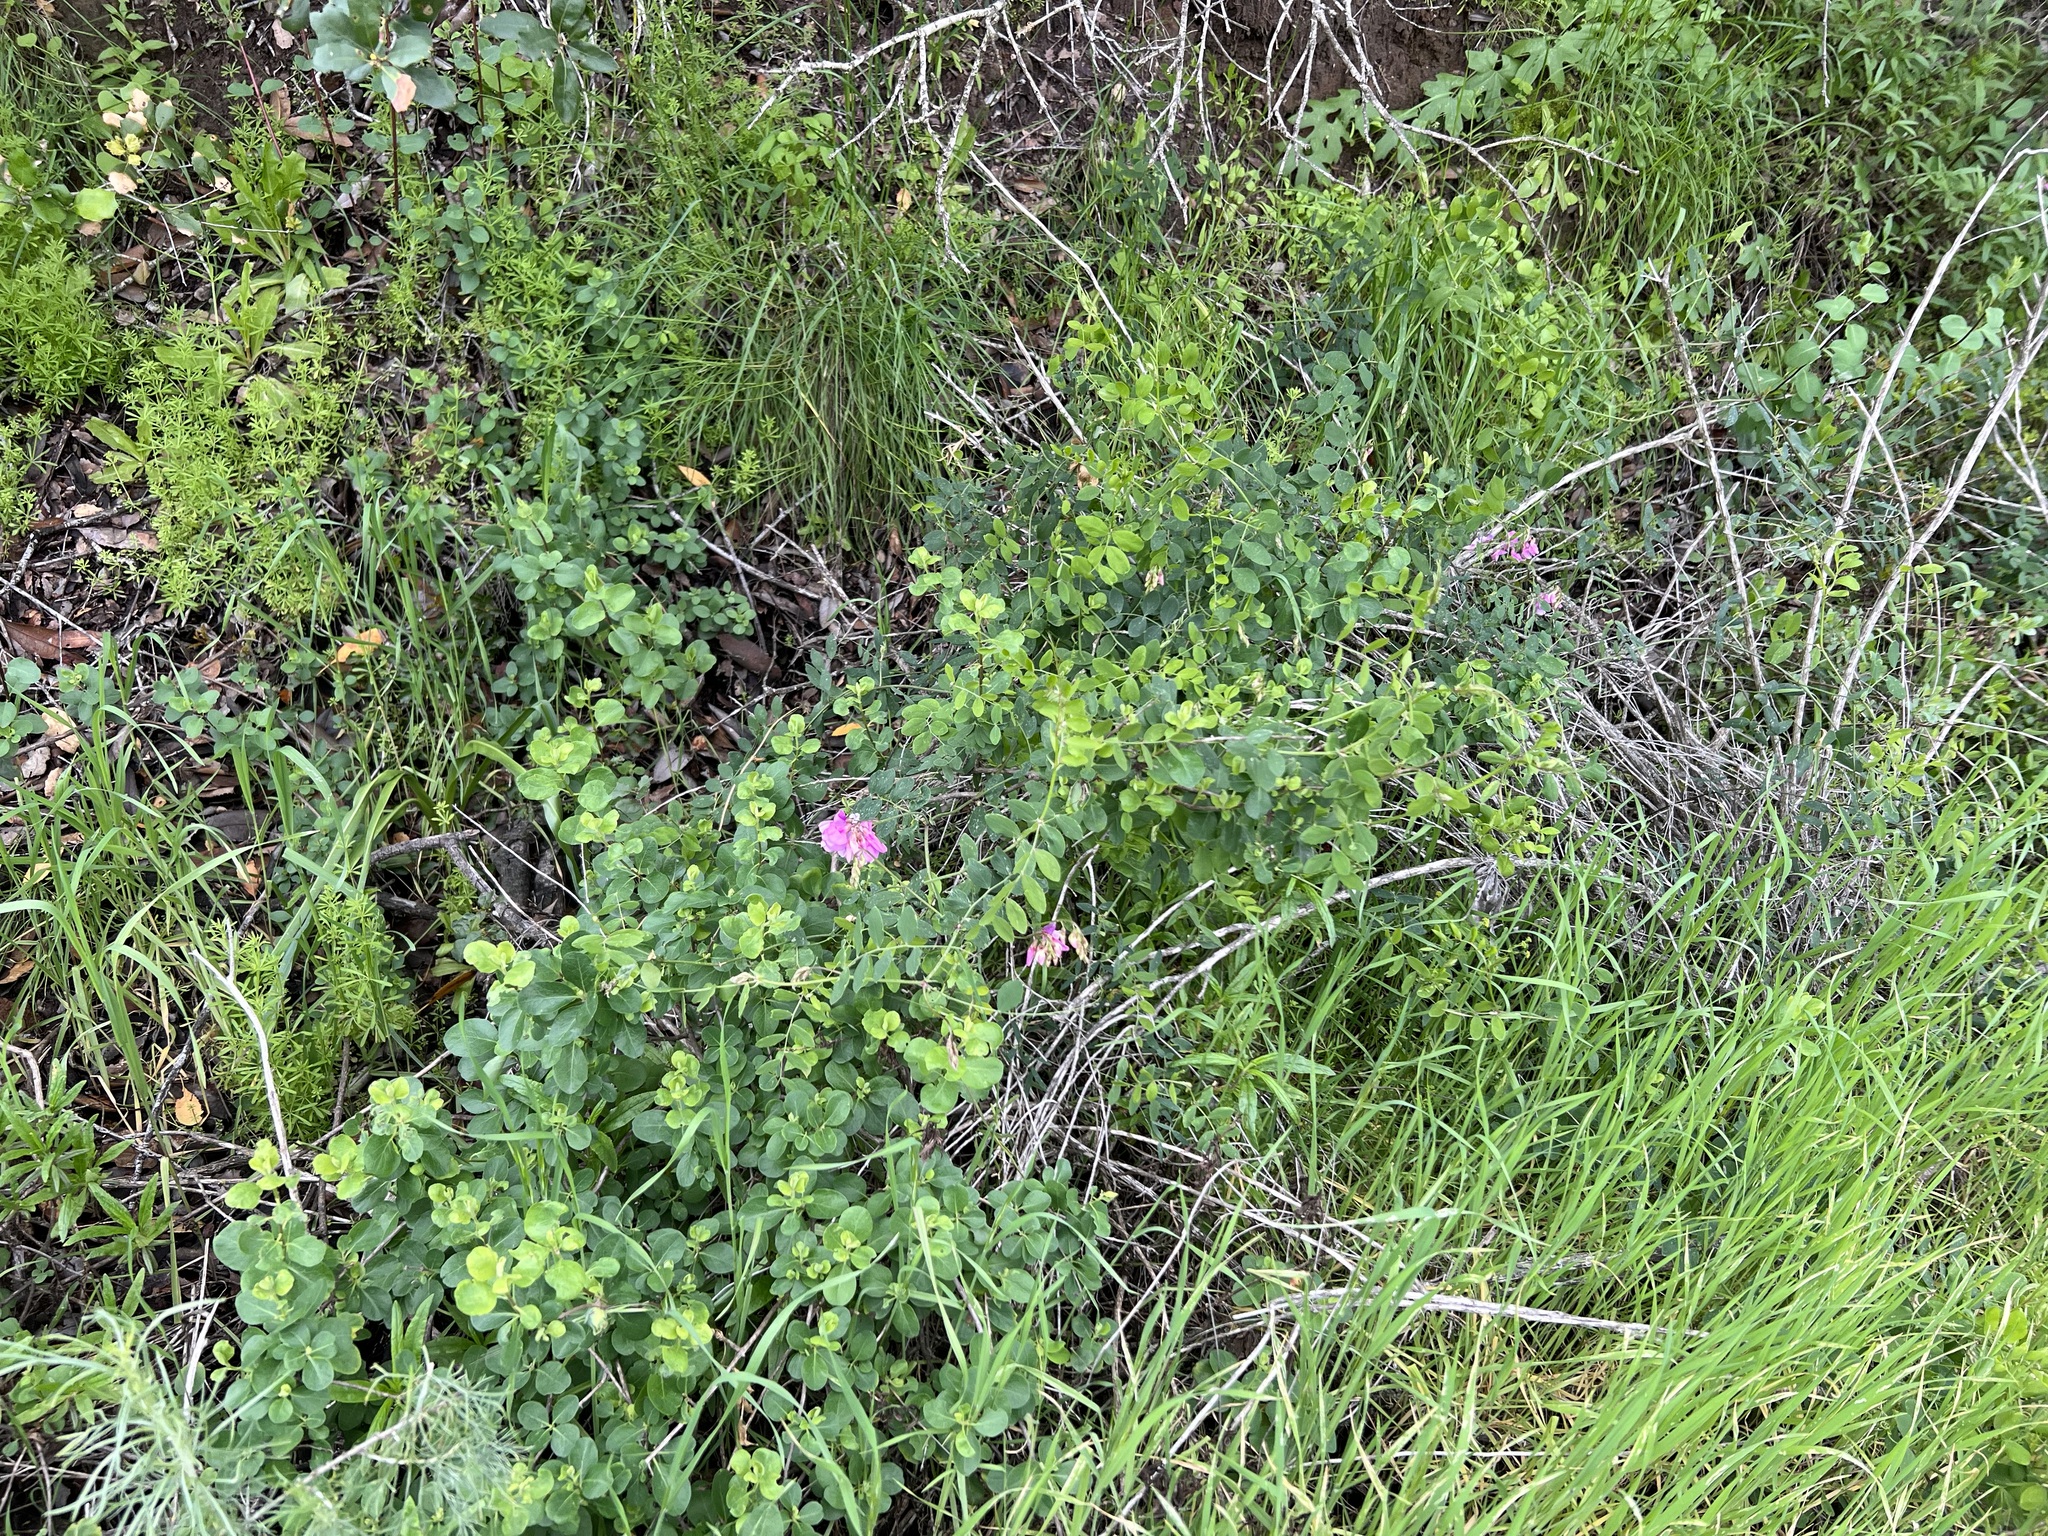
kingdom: Plantae
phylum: Tracheophyta
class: Magnoliopsida
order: Fabales
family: Fabaceae
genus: Lathyrus
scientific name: Lathyrus vestitus
